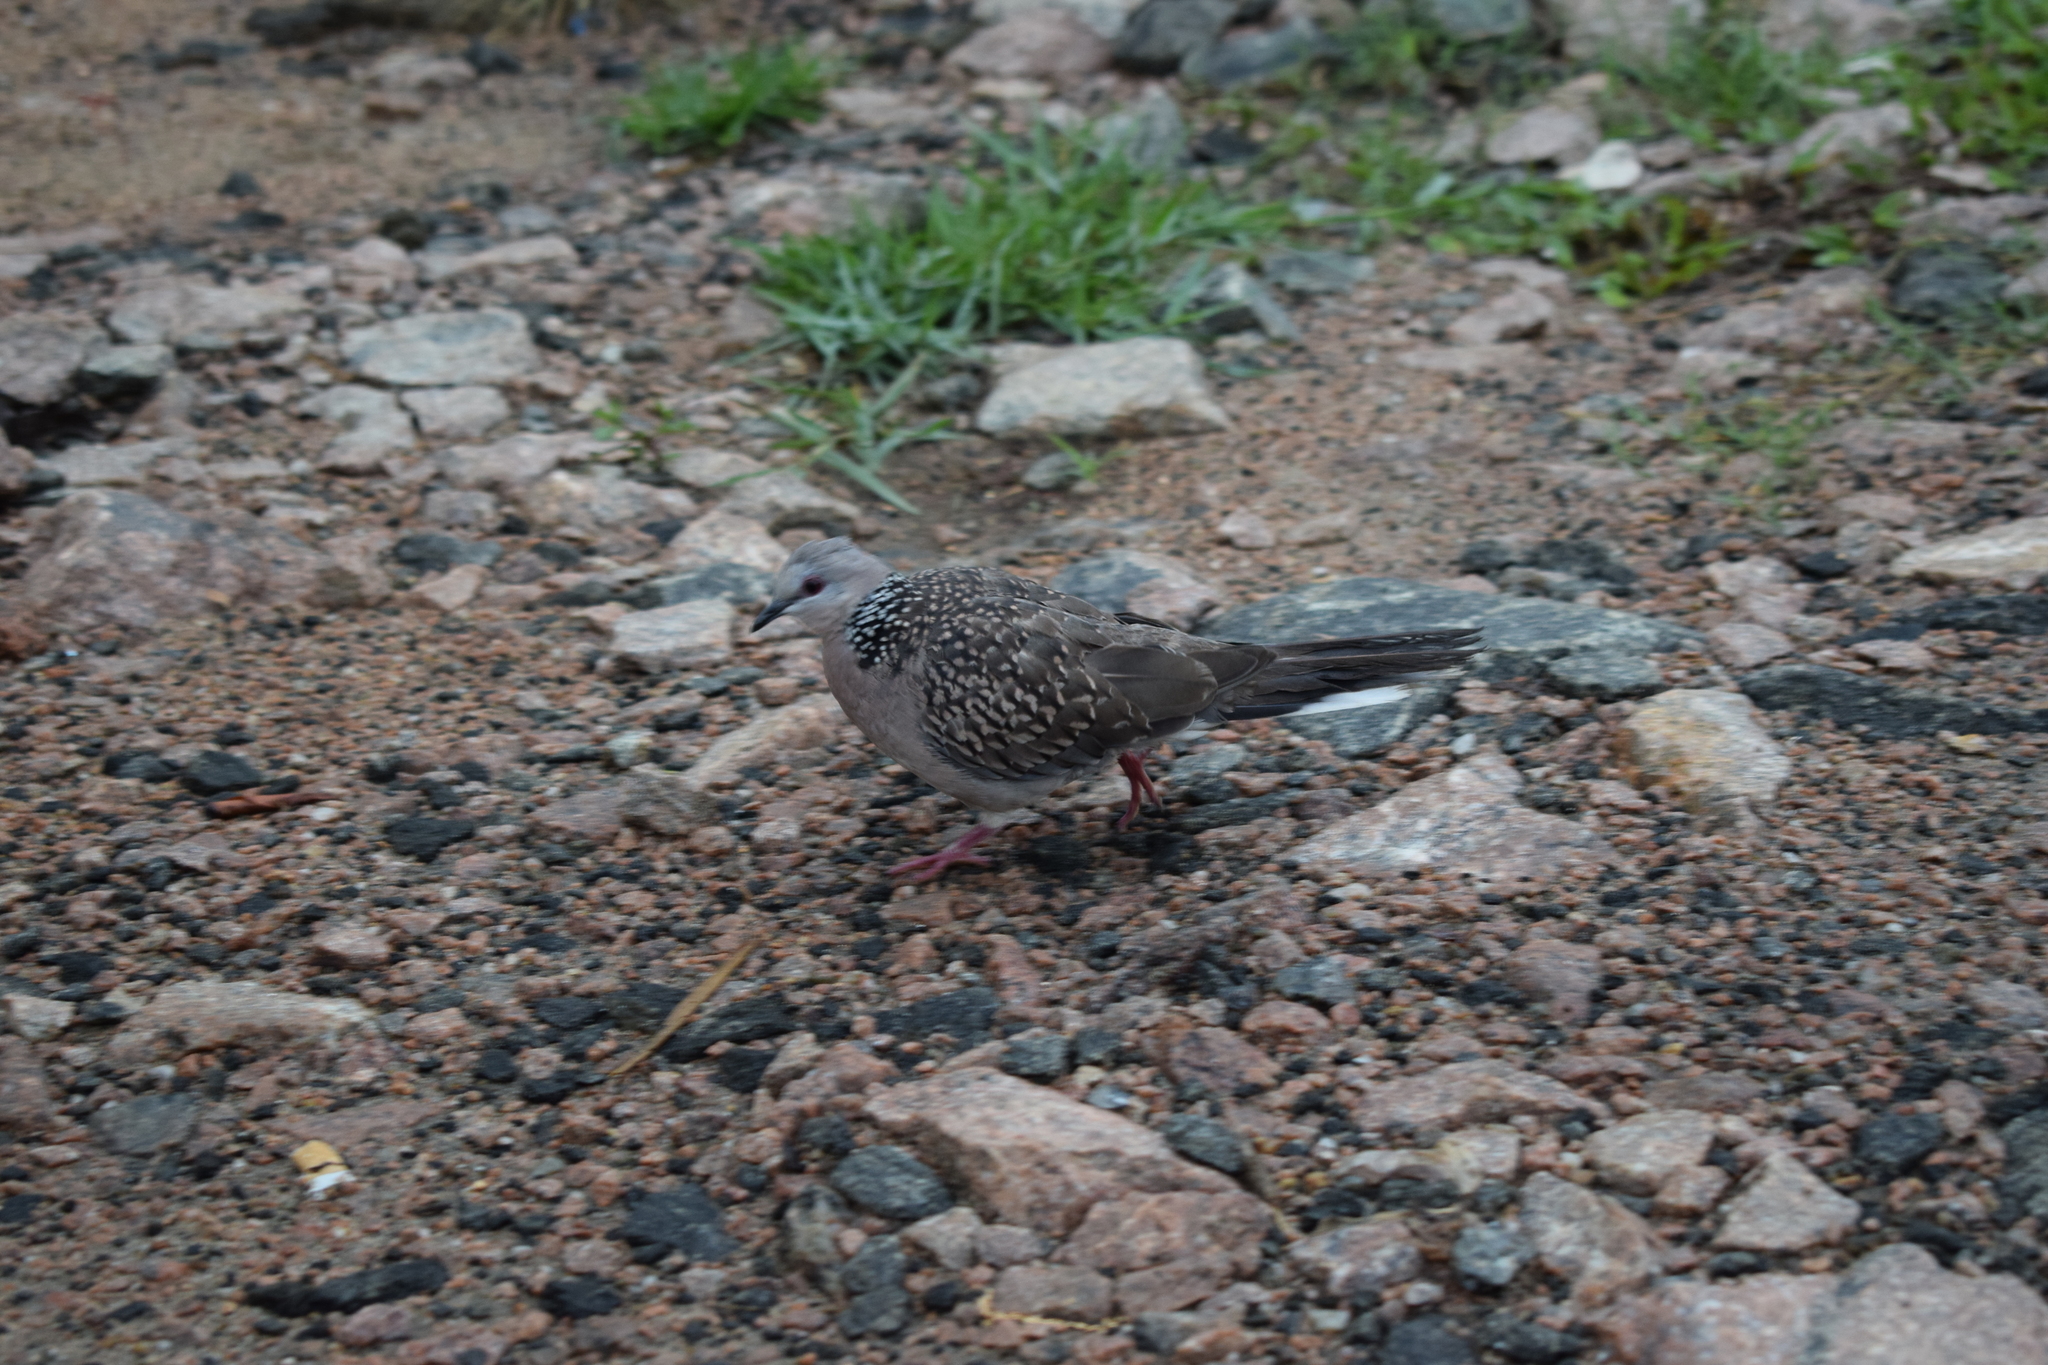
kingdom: Animalia
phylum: Chordata
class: Aves
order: Columbiformes
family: Columbidae
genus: Spilopelia
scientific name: Spilopelia chinensis
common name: Spotted dove
